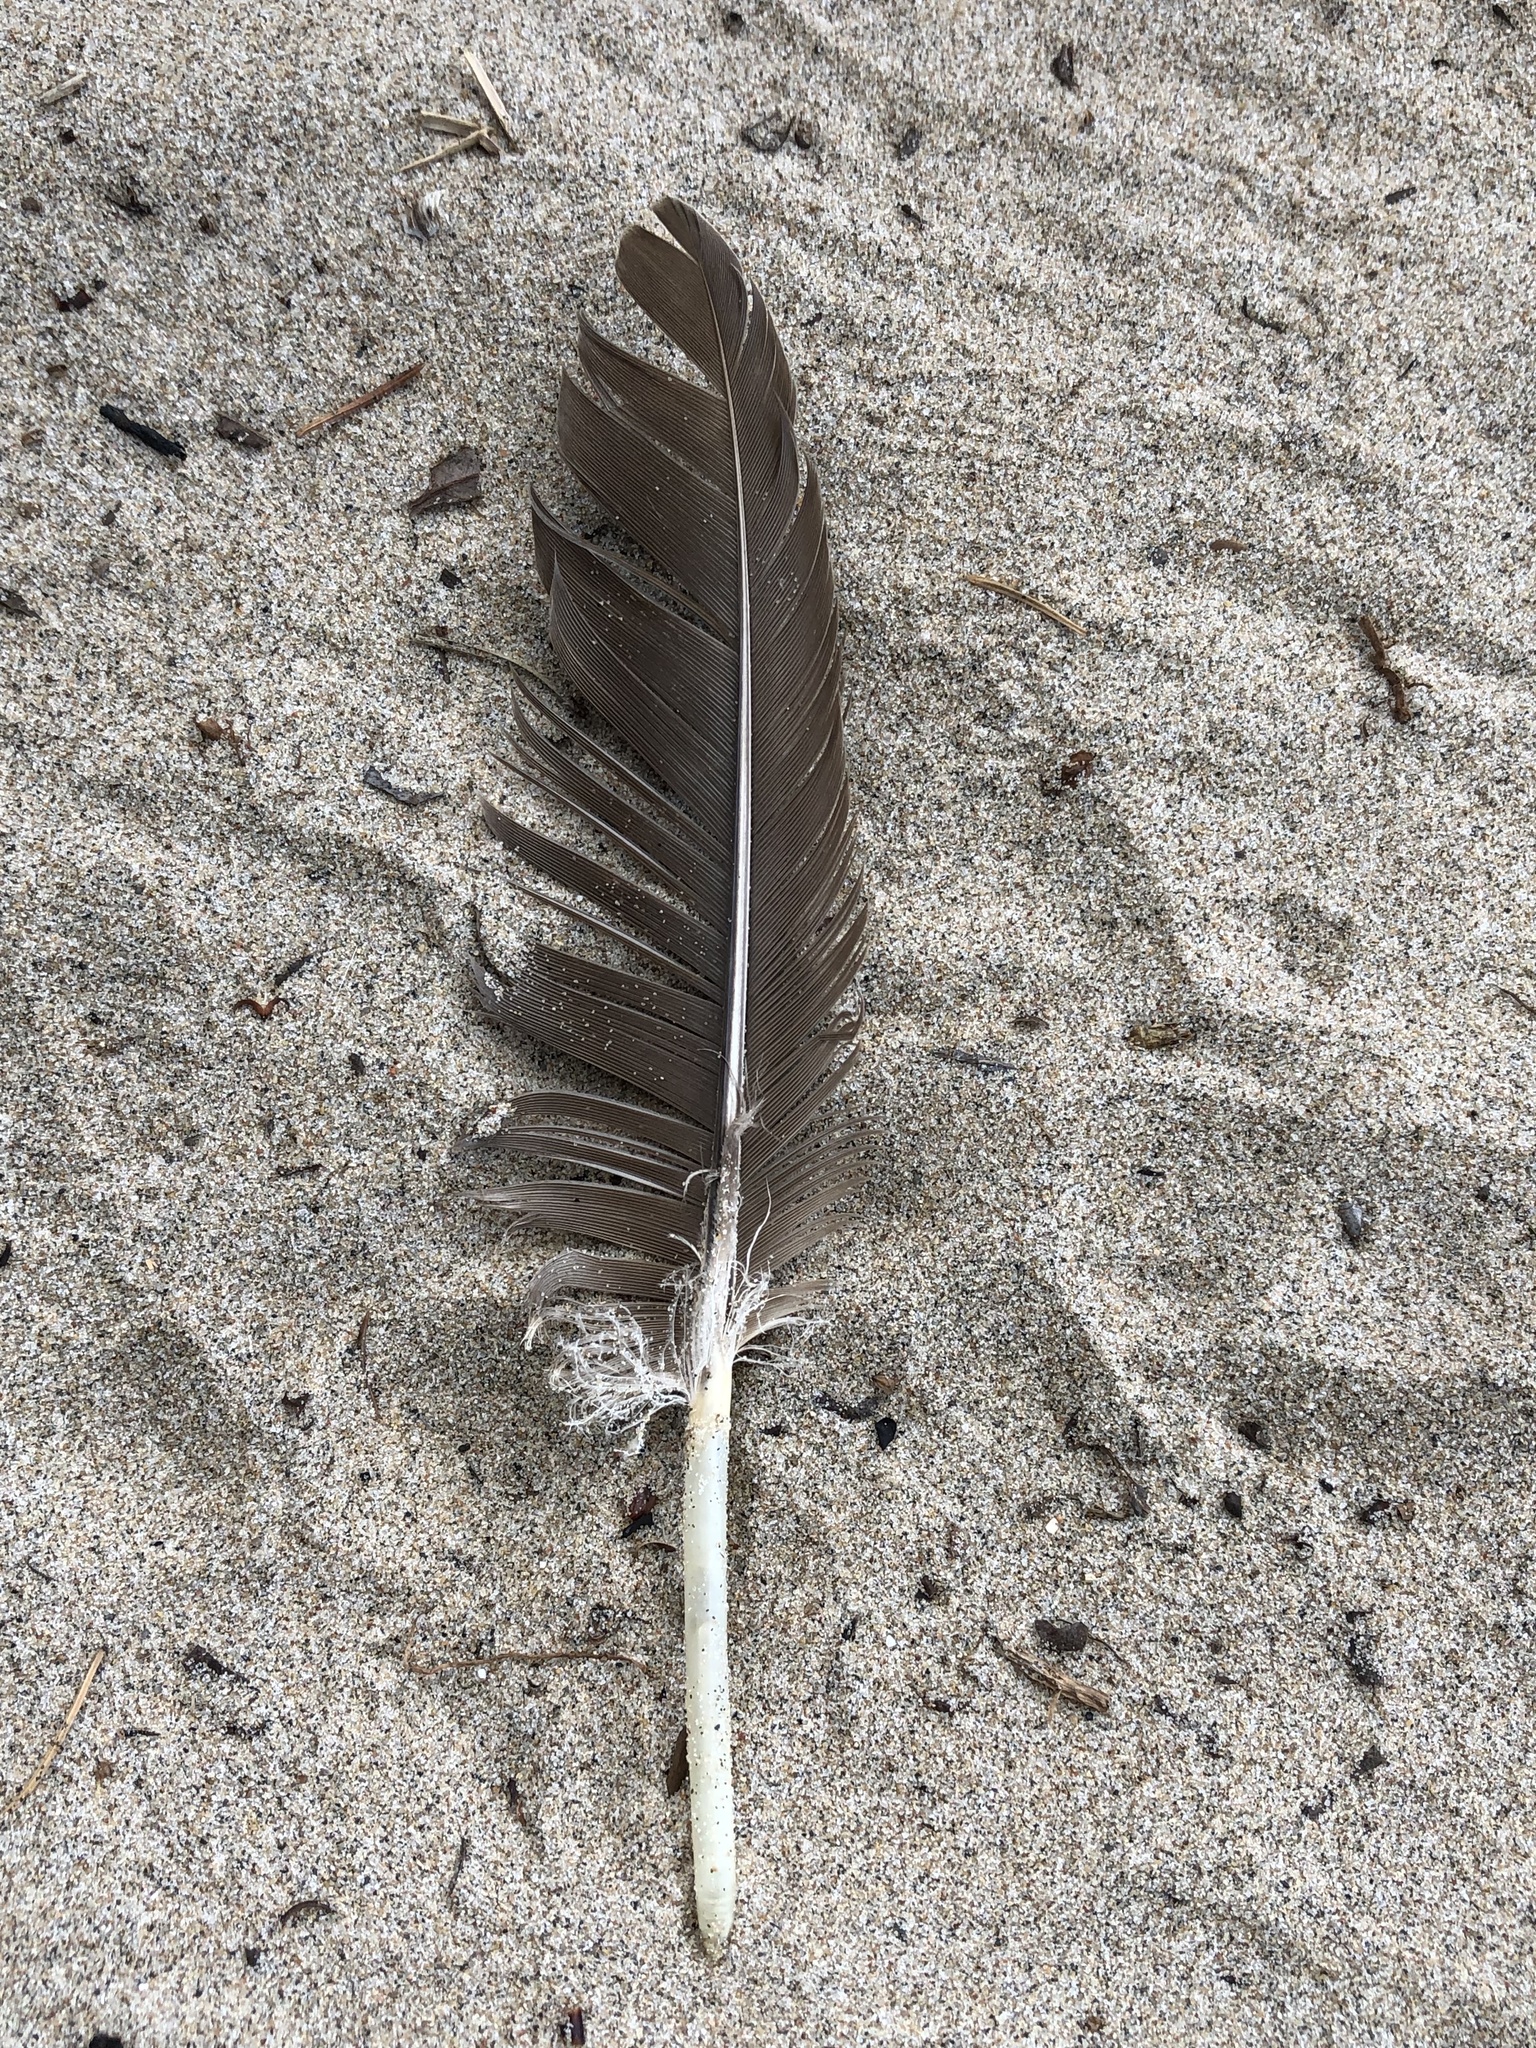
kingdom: Animalia
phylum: Chordata
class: Aves
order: Anseriformes
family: Anatidae
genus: Branta
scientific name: Branta canadensis
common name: Canada goose
